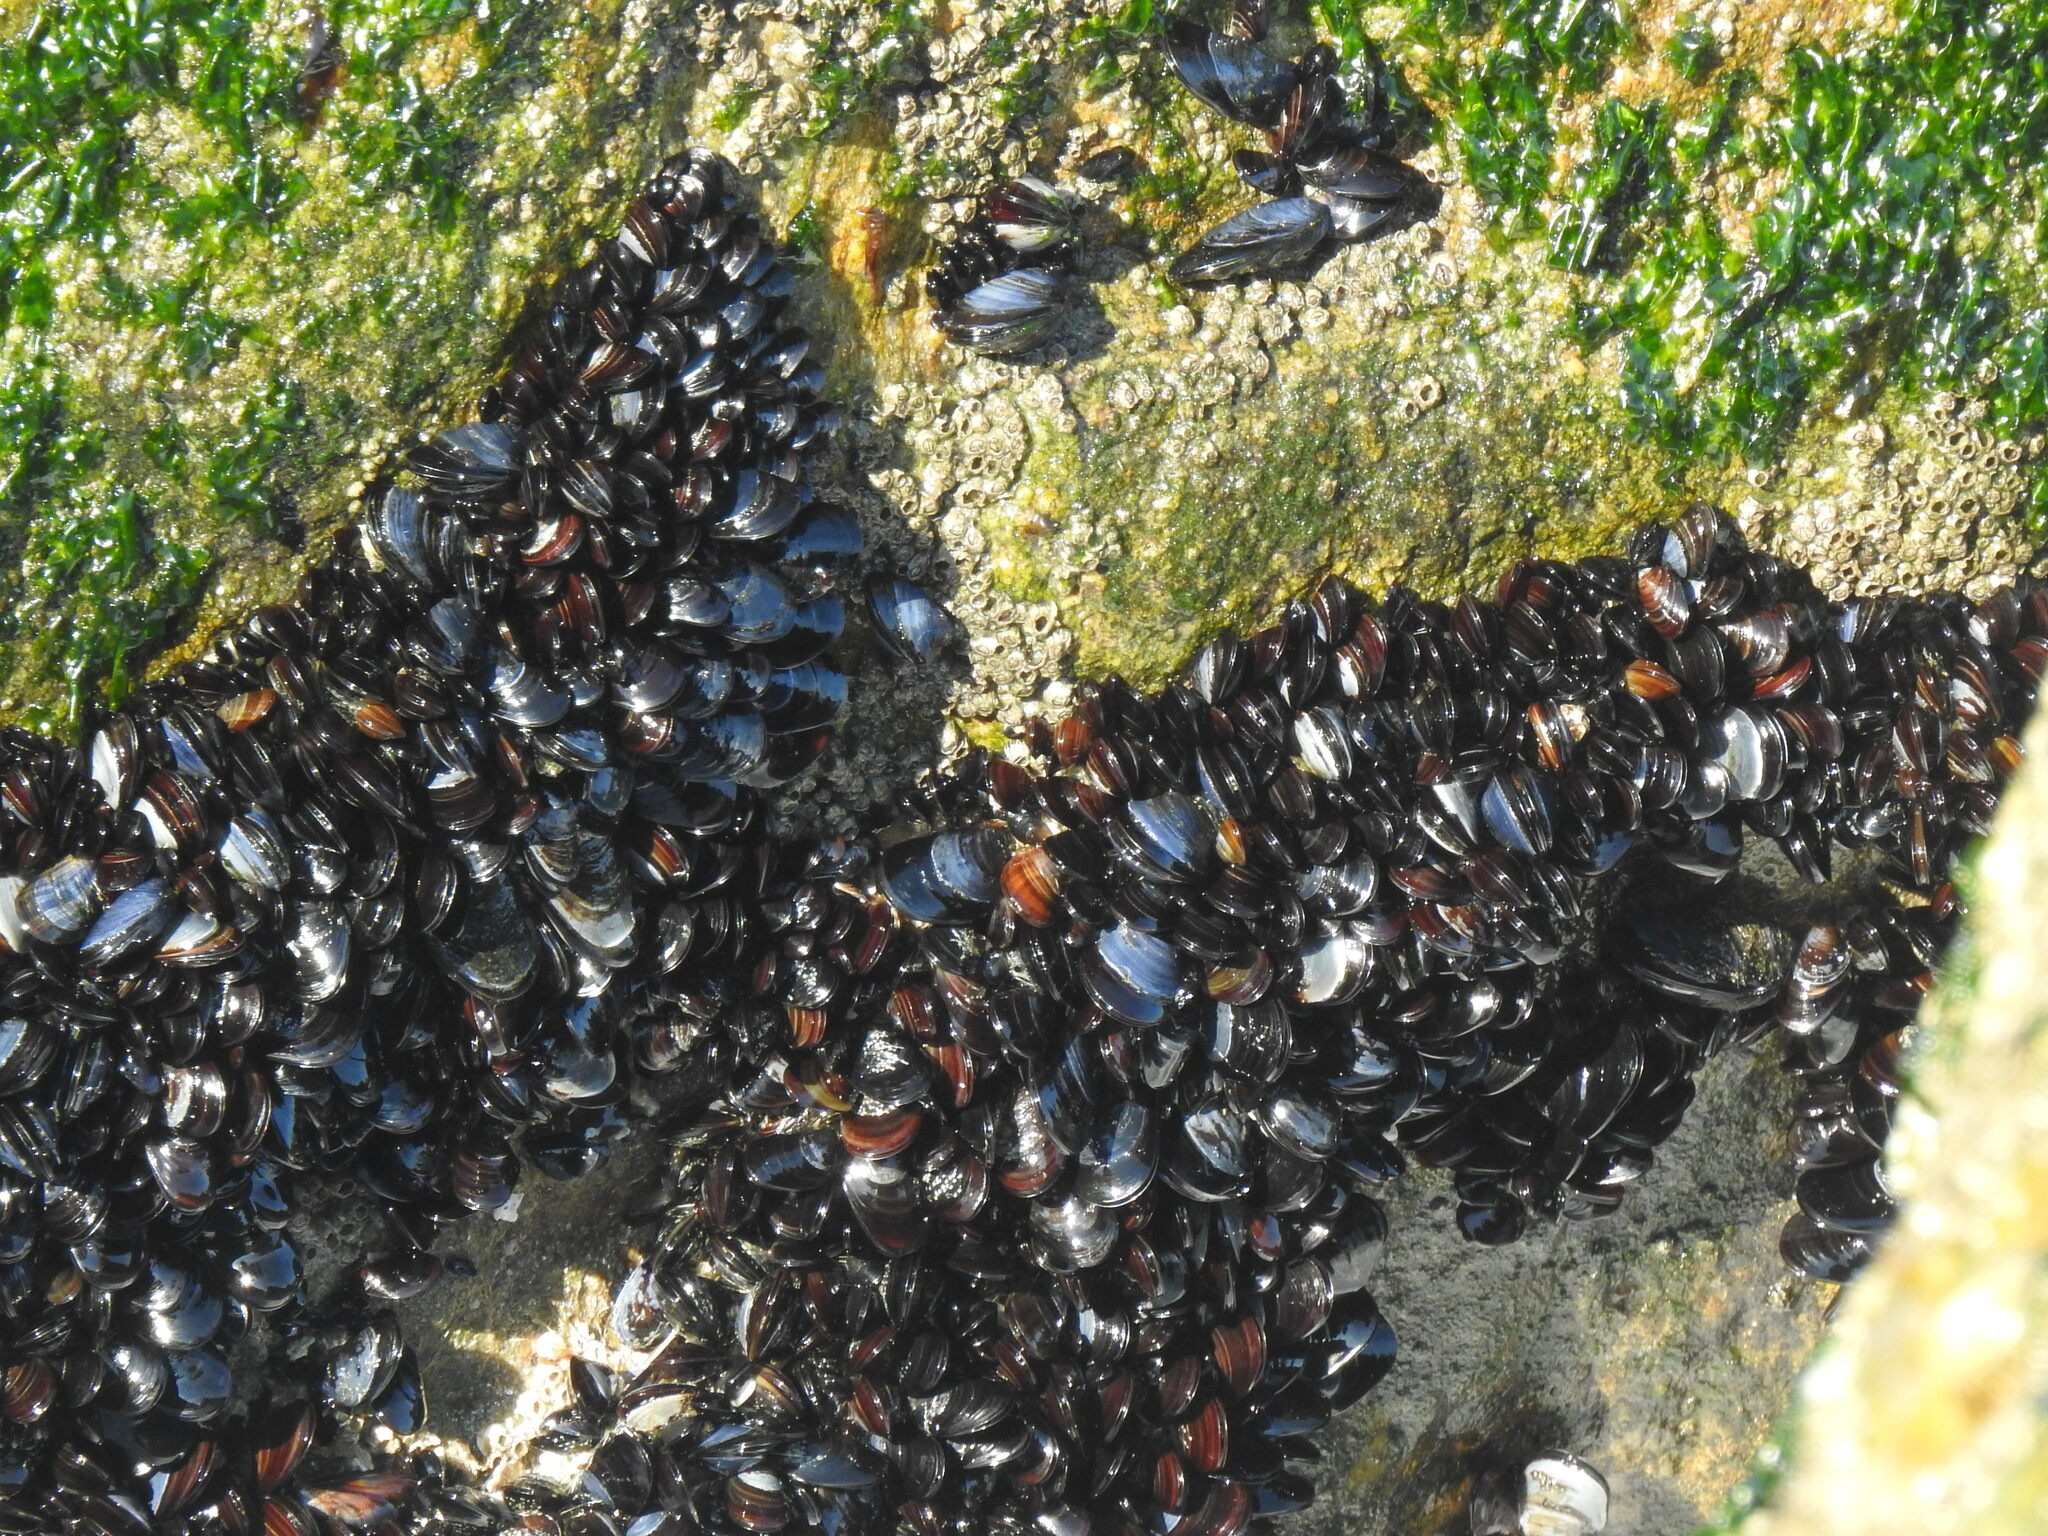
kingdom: Animalia
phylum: Mollusca
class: Bivalvia
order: Mytilida
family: Mytilidae
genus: Mytilus
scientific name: Mytilus galloprovincialis
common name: Mediterranean mussel
